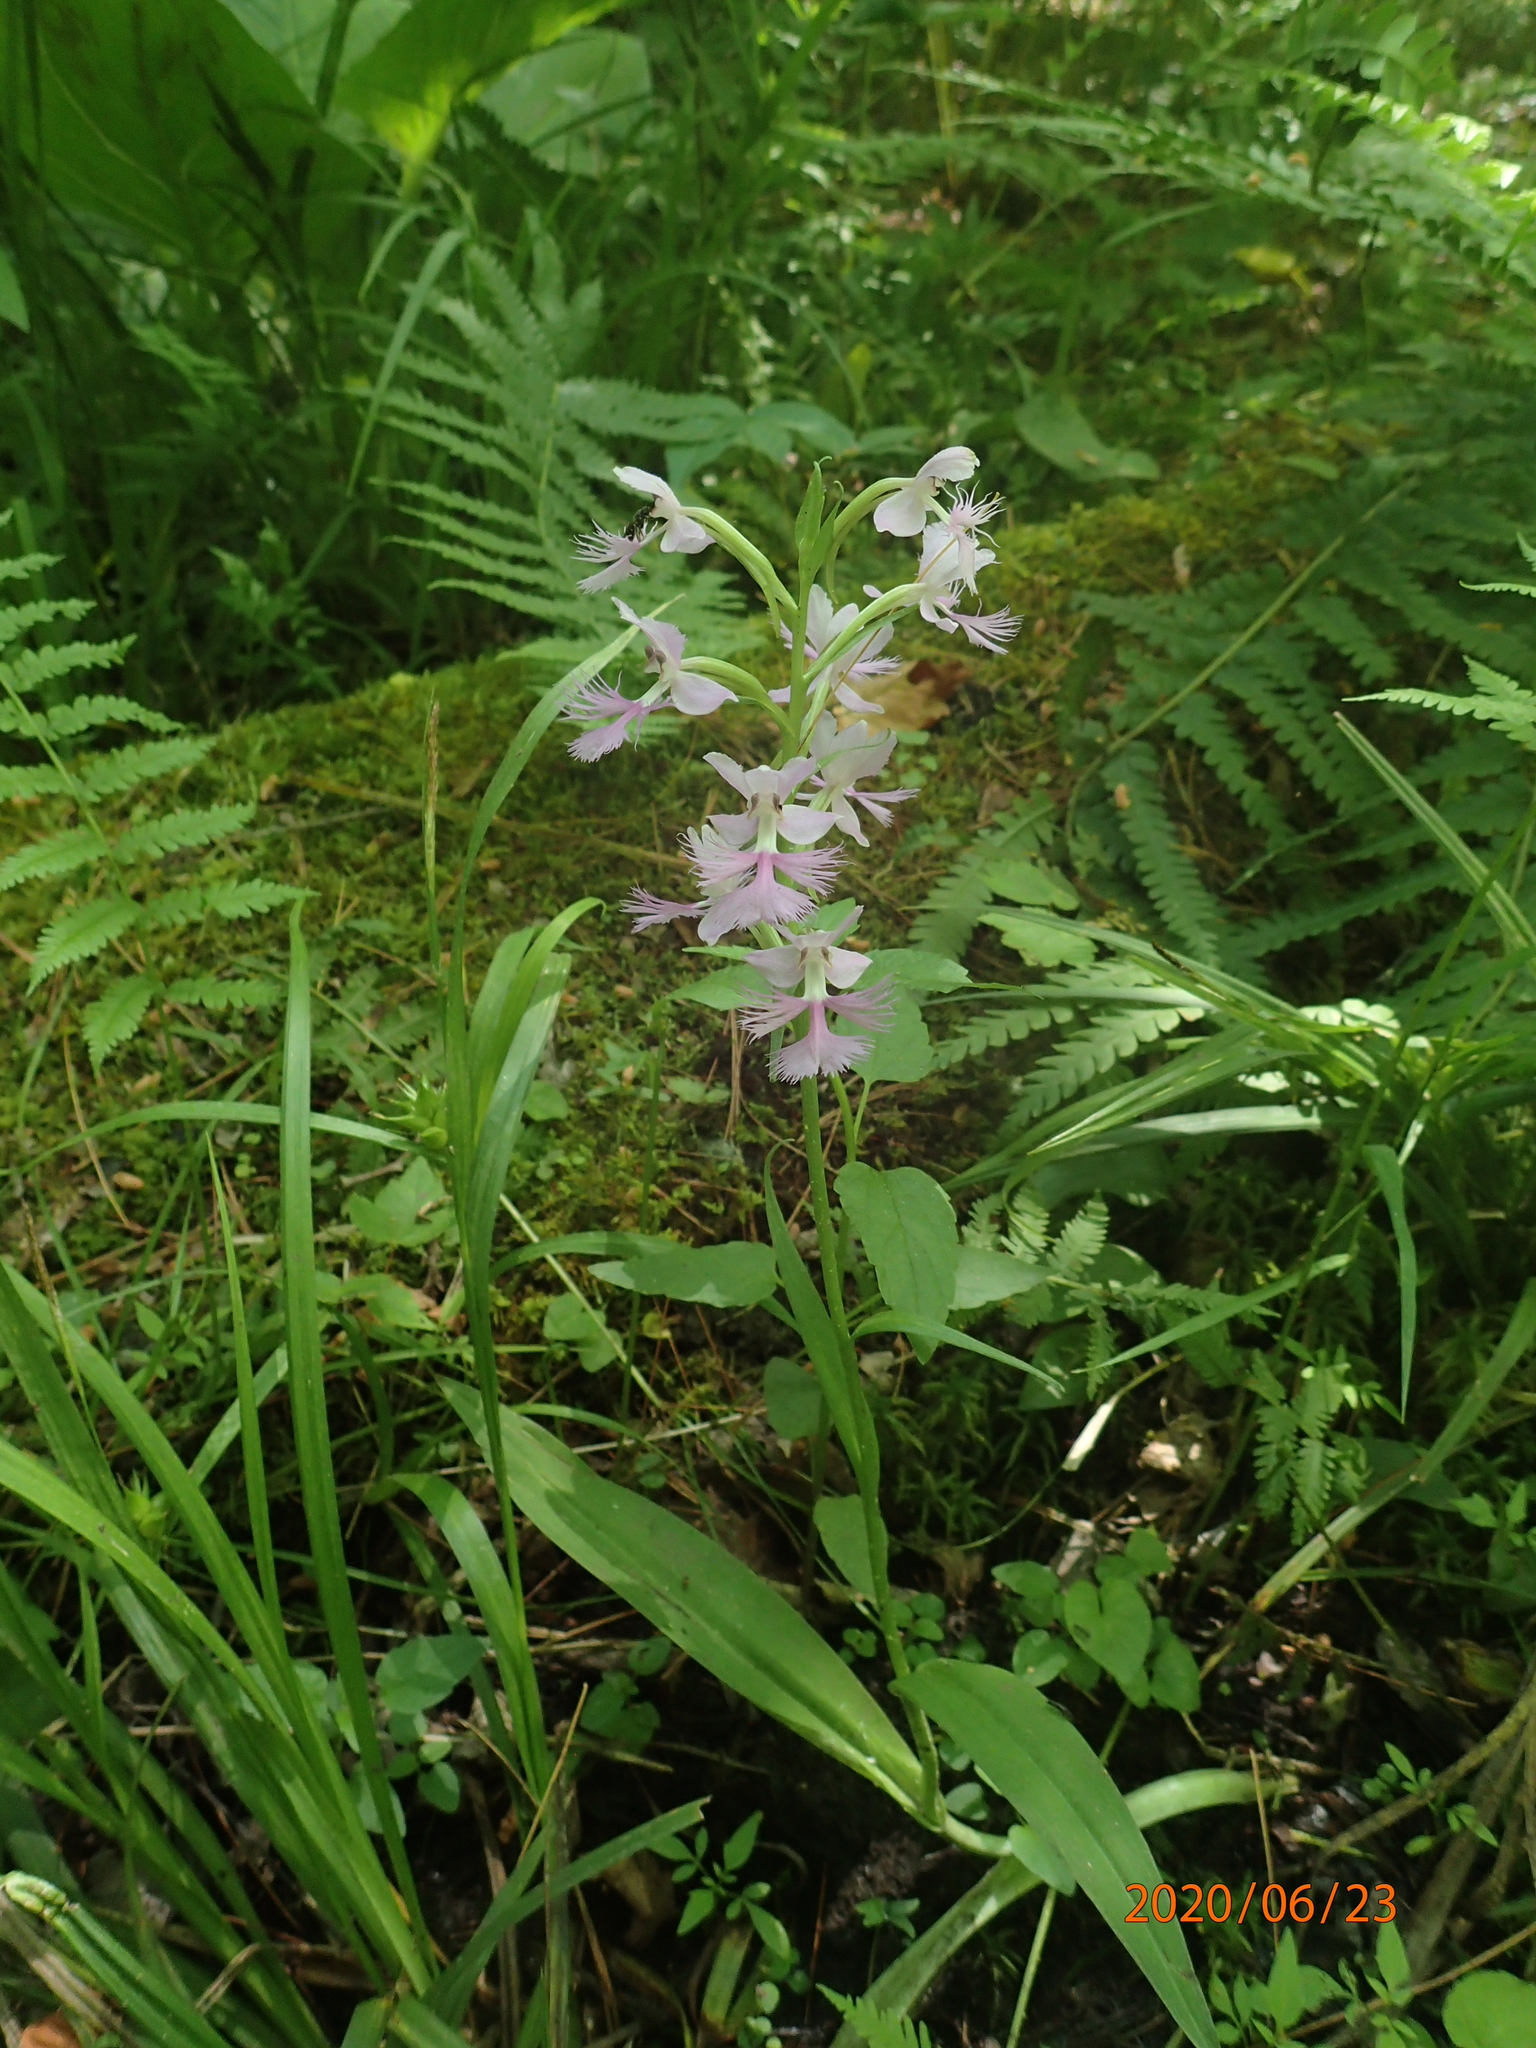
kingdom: Plantae
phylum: Tracheophyta
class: Liliopsida
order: Asparagales
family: Orchidaceae
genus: Platanthera
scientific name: Platanthera grandiflora
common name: Greater purple fringed orchid
